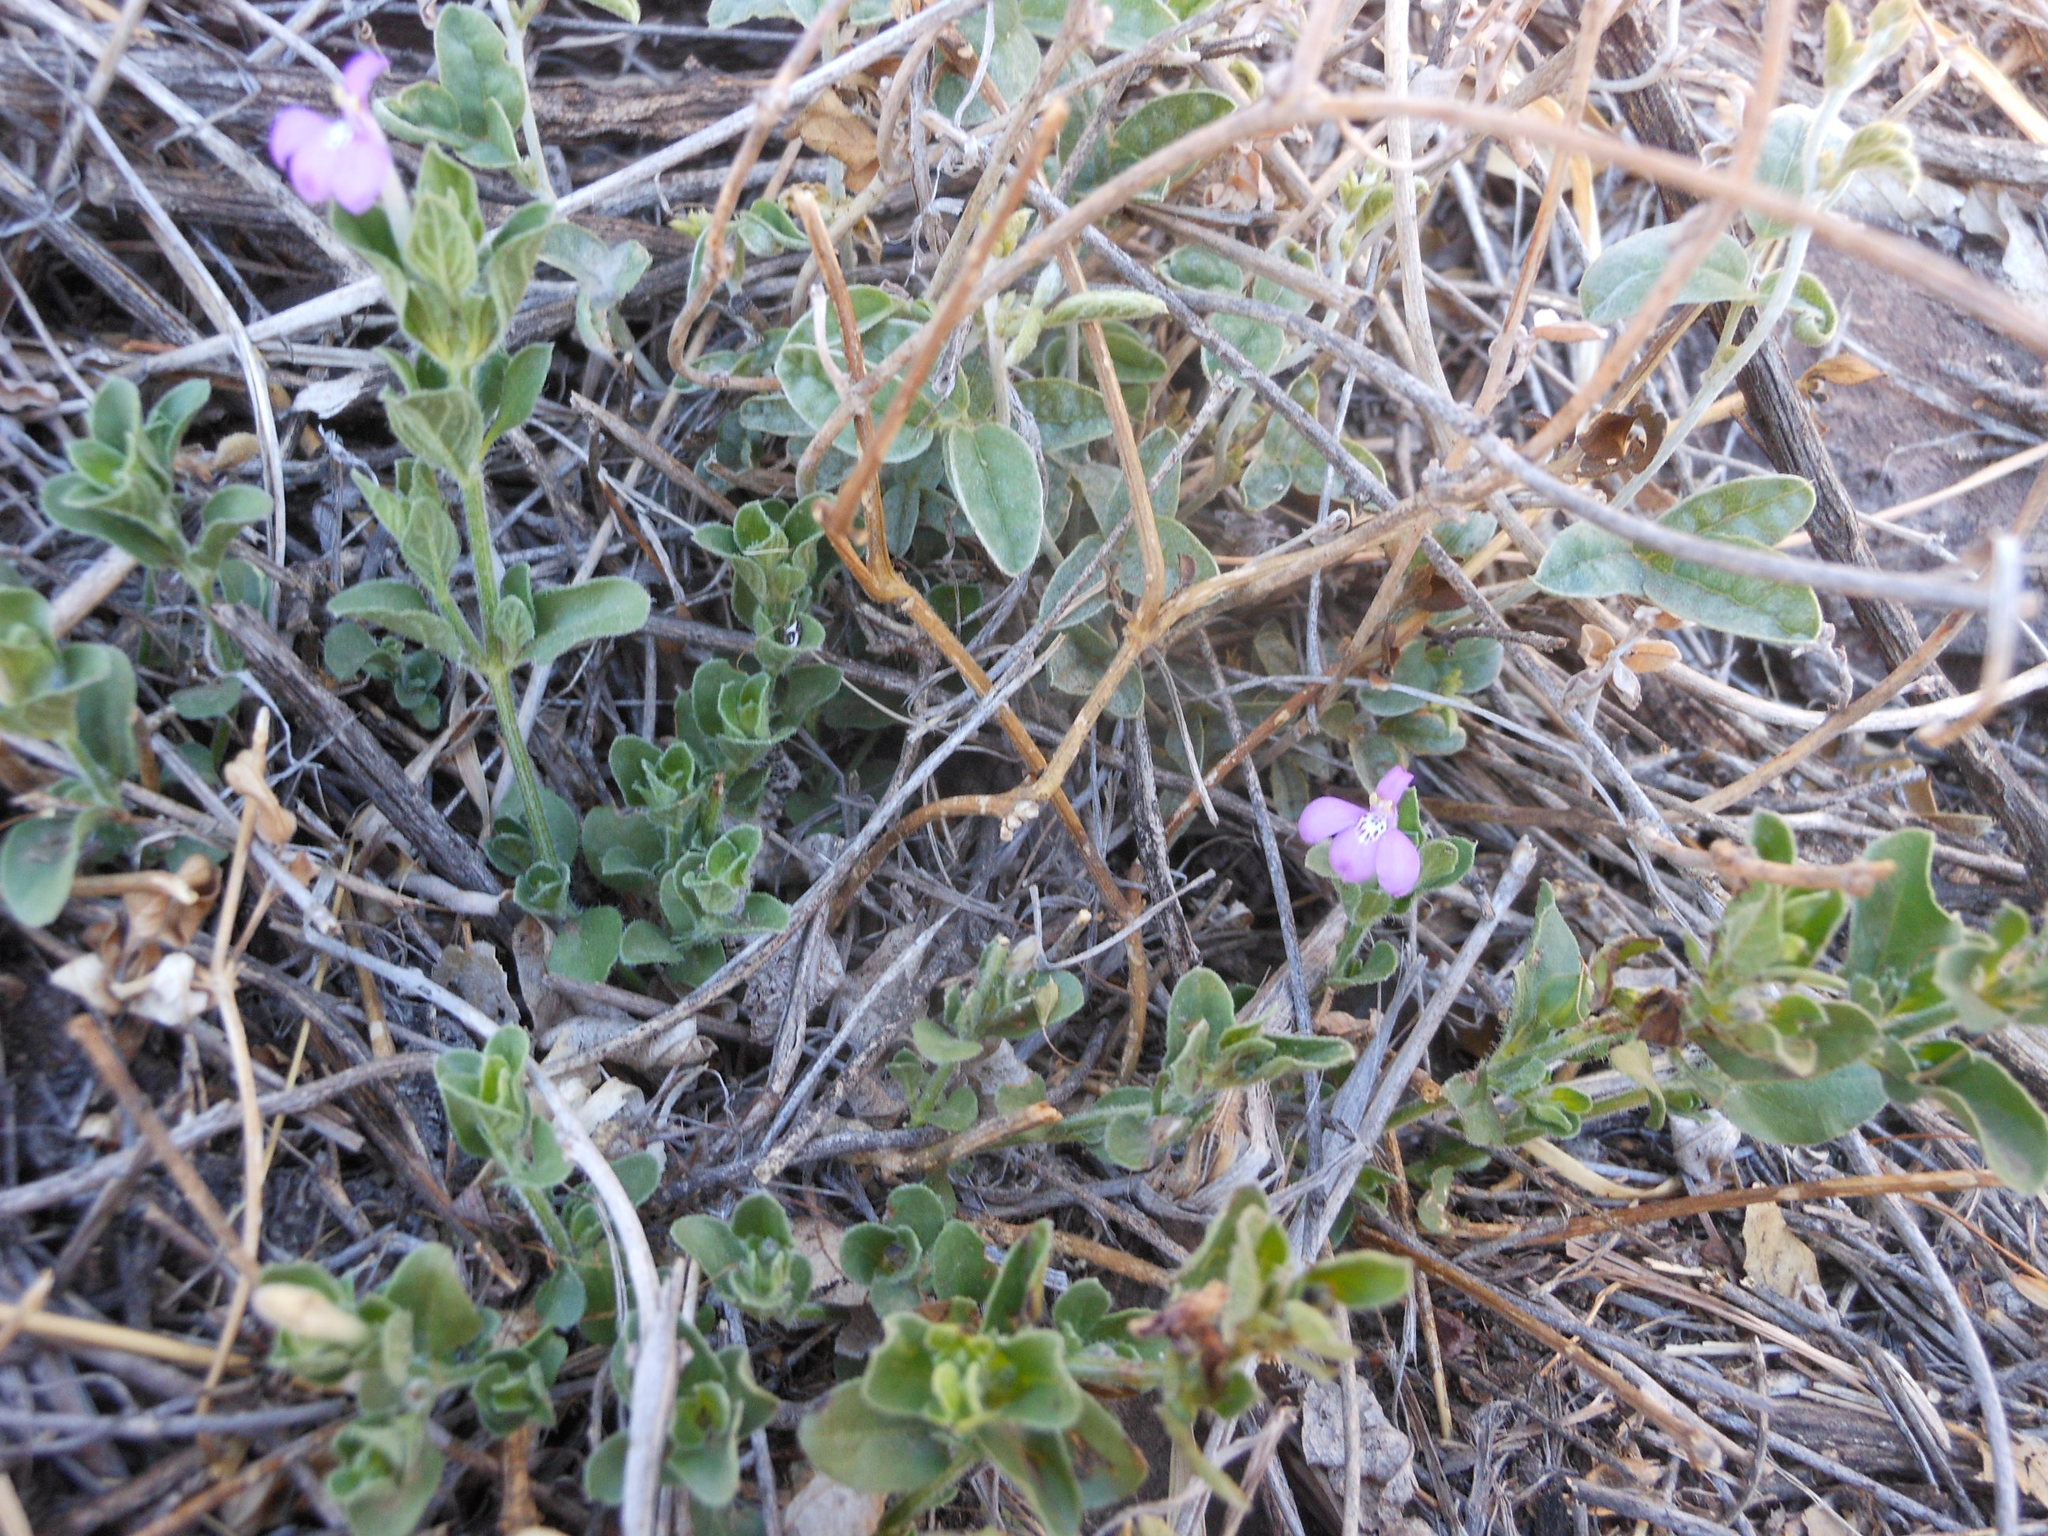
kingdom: Plantae
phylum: Tracheophyta
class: Magnoliopsida
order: Lamiales
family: Acanthaceae
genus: Justicia
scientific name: Justicia pilosella
